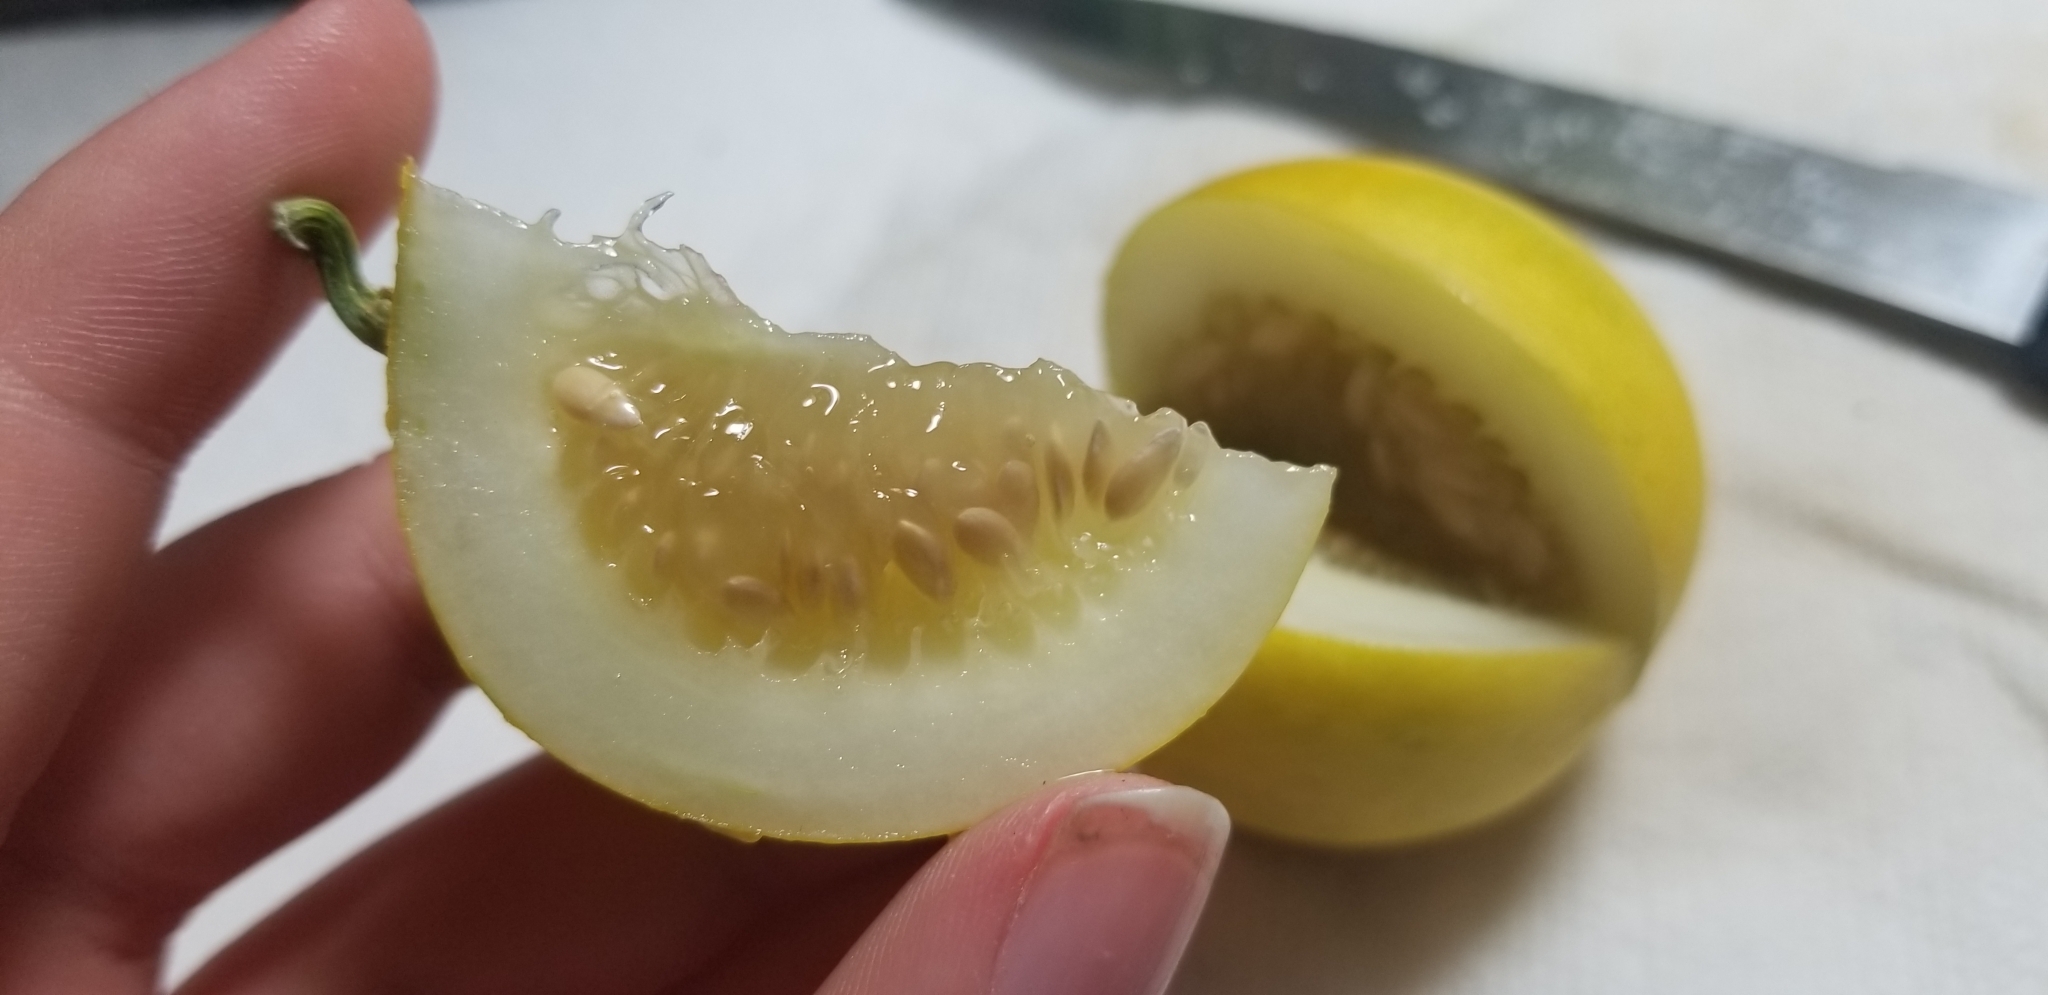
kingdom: Plantae
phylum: Tracheophyta
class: Magnoliopsida
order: Cucurbitales
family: Cucurbitaceae
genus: Cucumis
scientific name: Cucumis melo
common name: Melon
